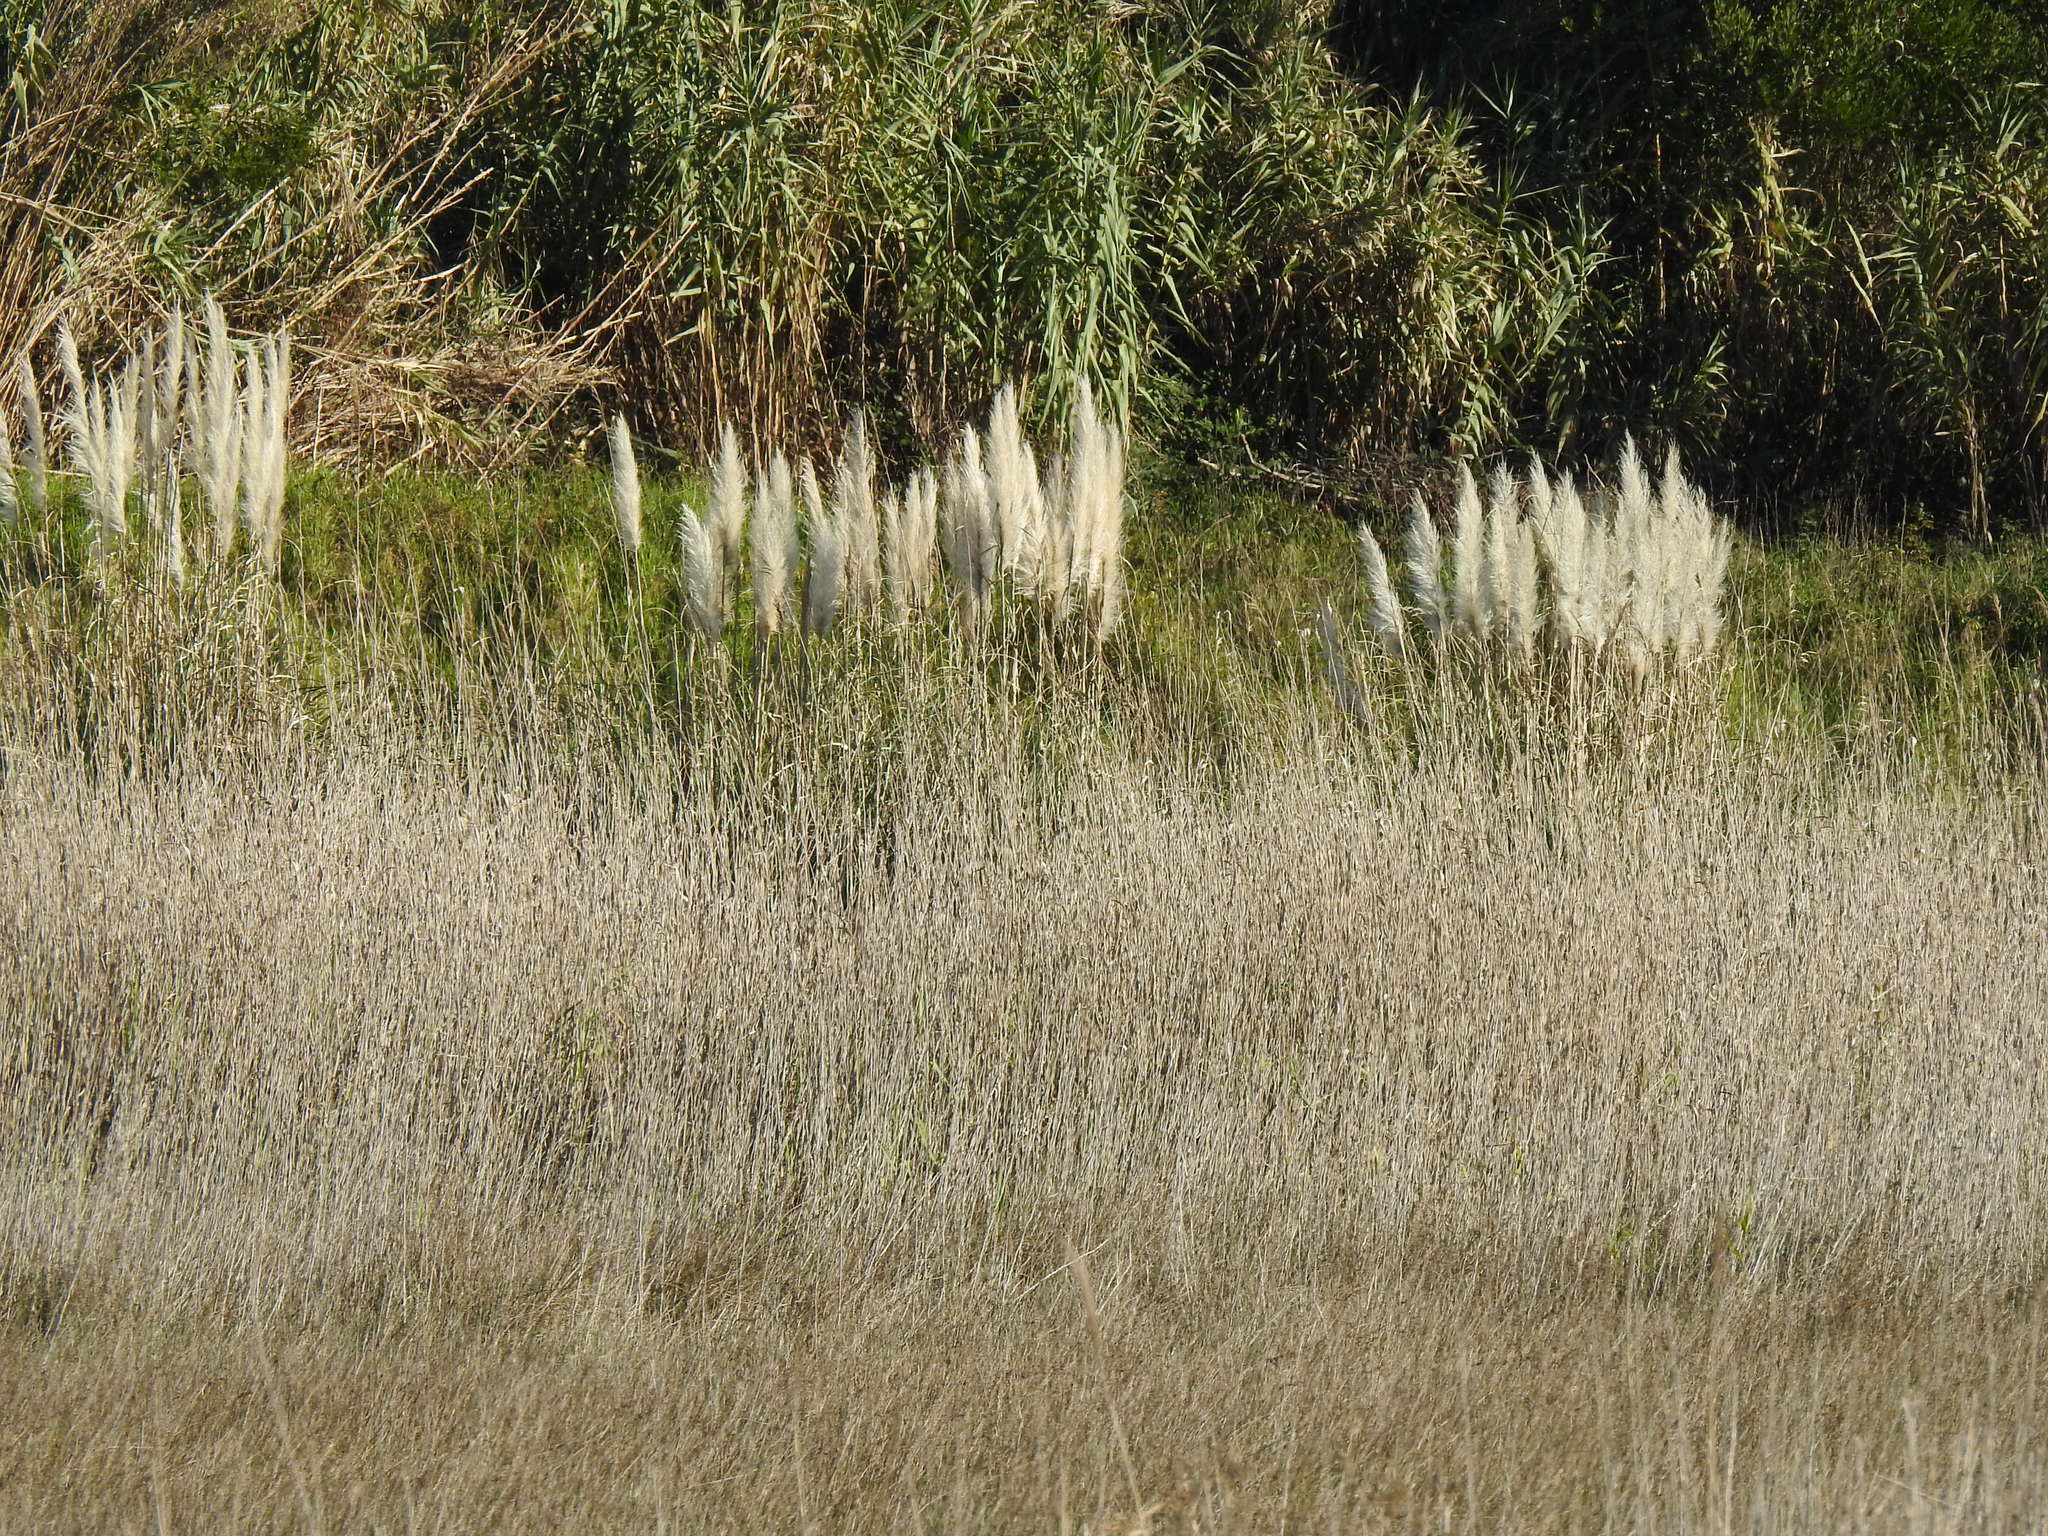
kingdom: Plantae
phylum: Tracheophyta
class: Liliopsida
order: Poales
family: Poaceae
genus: Cortaderia
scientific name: Cortaderia selloana
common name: Uruguayan pampas grass
